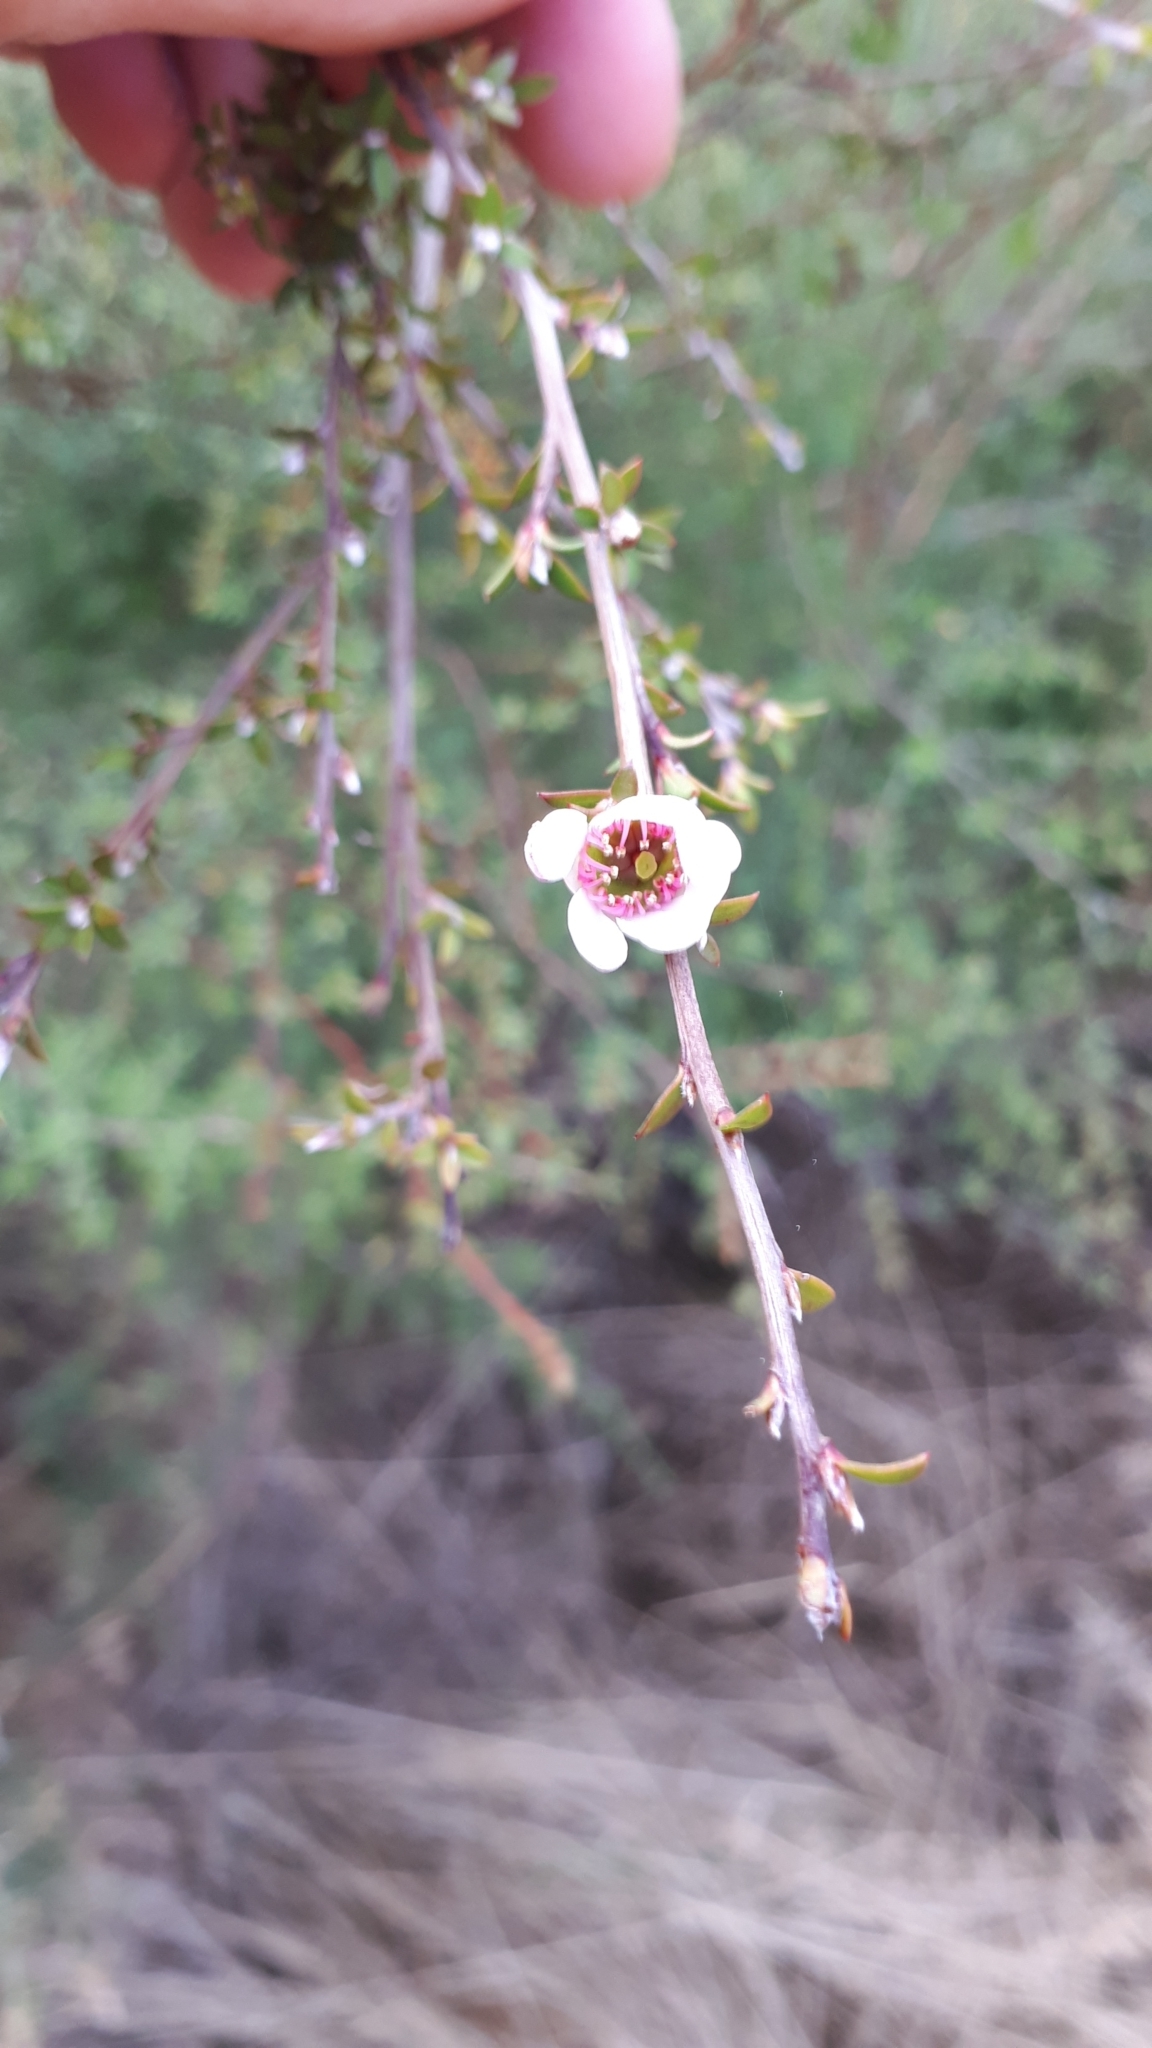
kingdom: Plantae
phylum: Tracheophyta
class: Magnoliopsida
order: Myrtales
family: Myrtaceae
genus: Leptospermum
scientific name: Leptospermum scoparium
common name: Broom tea-tree
